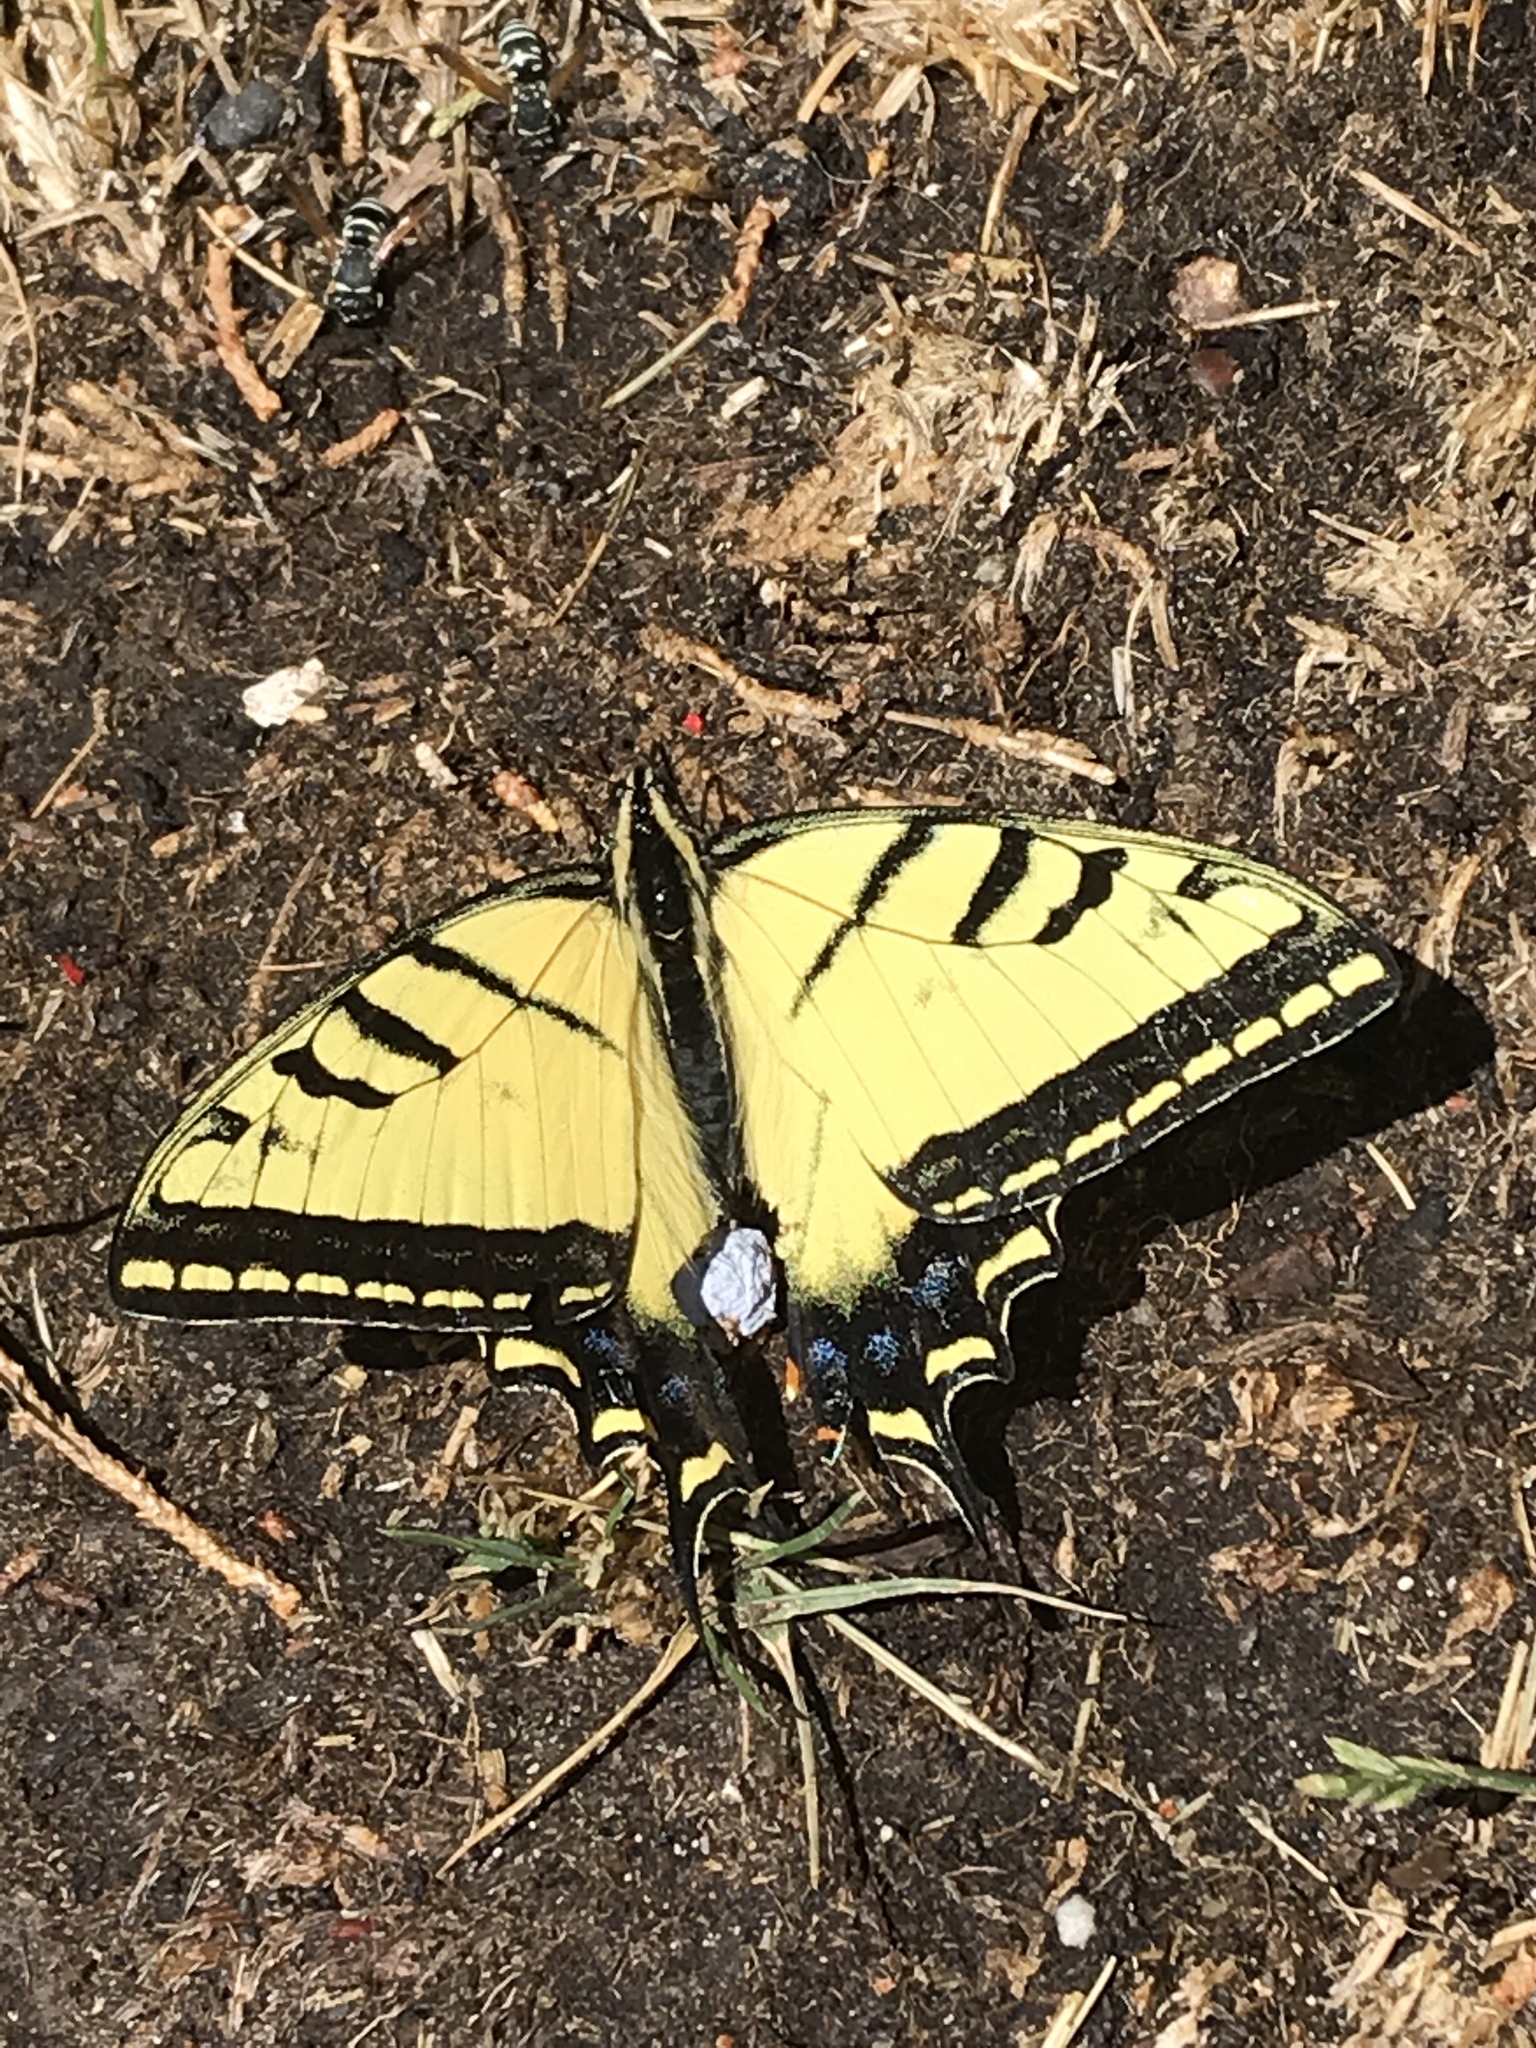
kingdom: Animalia
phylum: Arthropoda
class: Insecta
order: Lepidoptera
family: Papilionidae
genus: Papilio
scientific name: Papilio multicaudata
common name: Two-tailed tiger swallowtail
